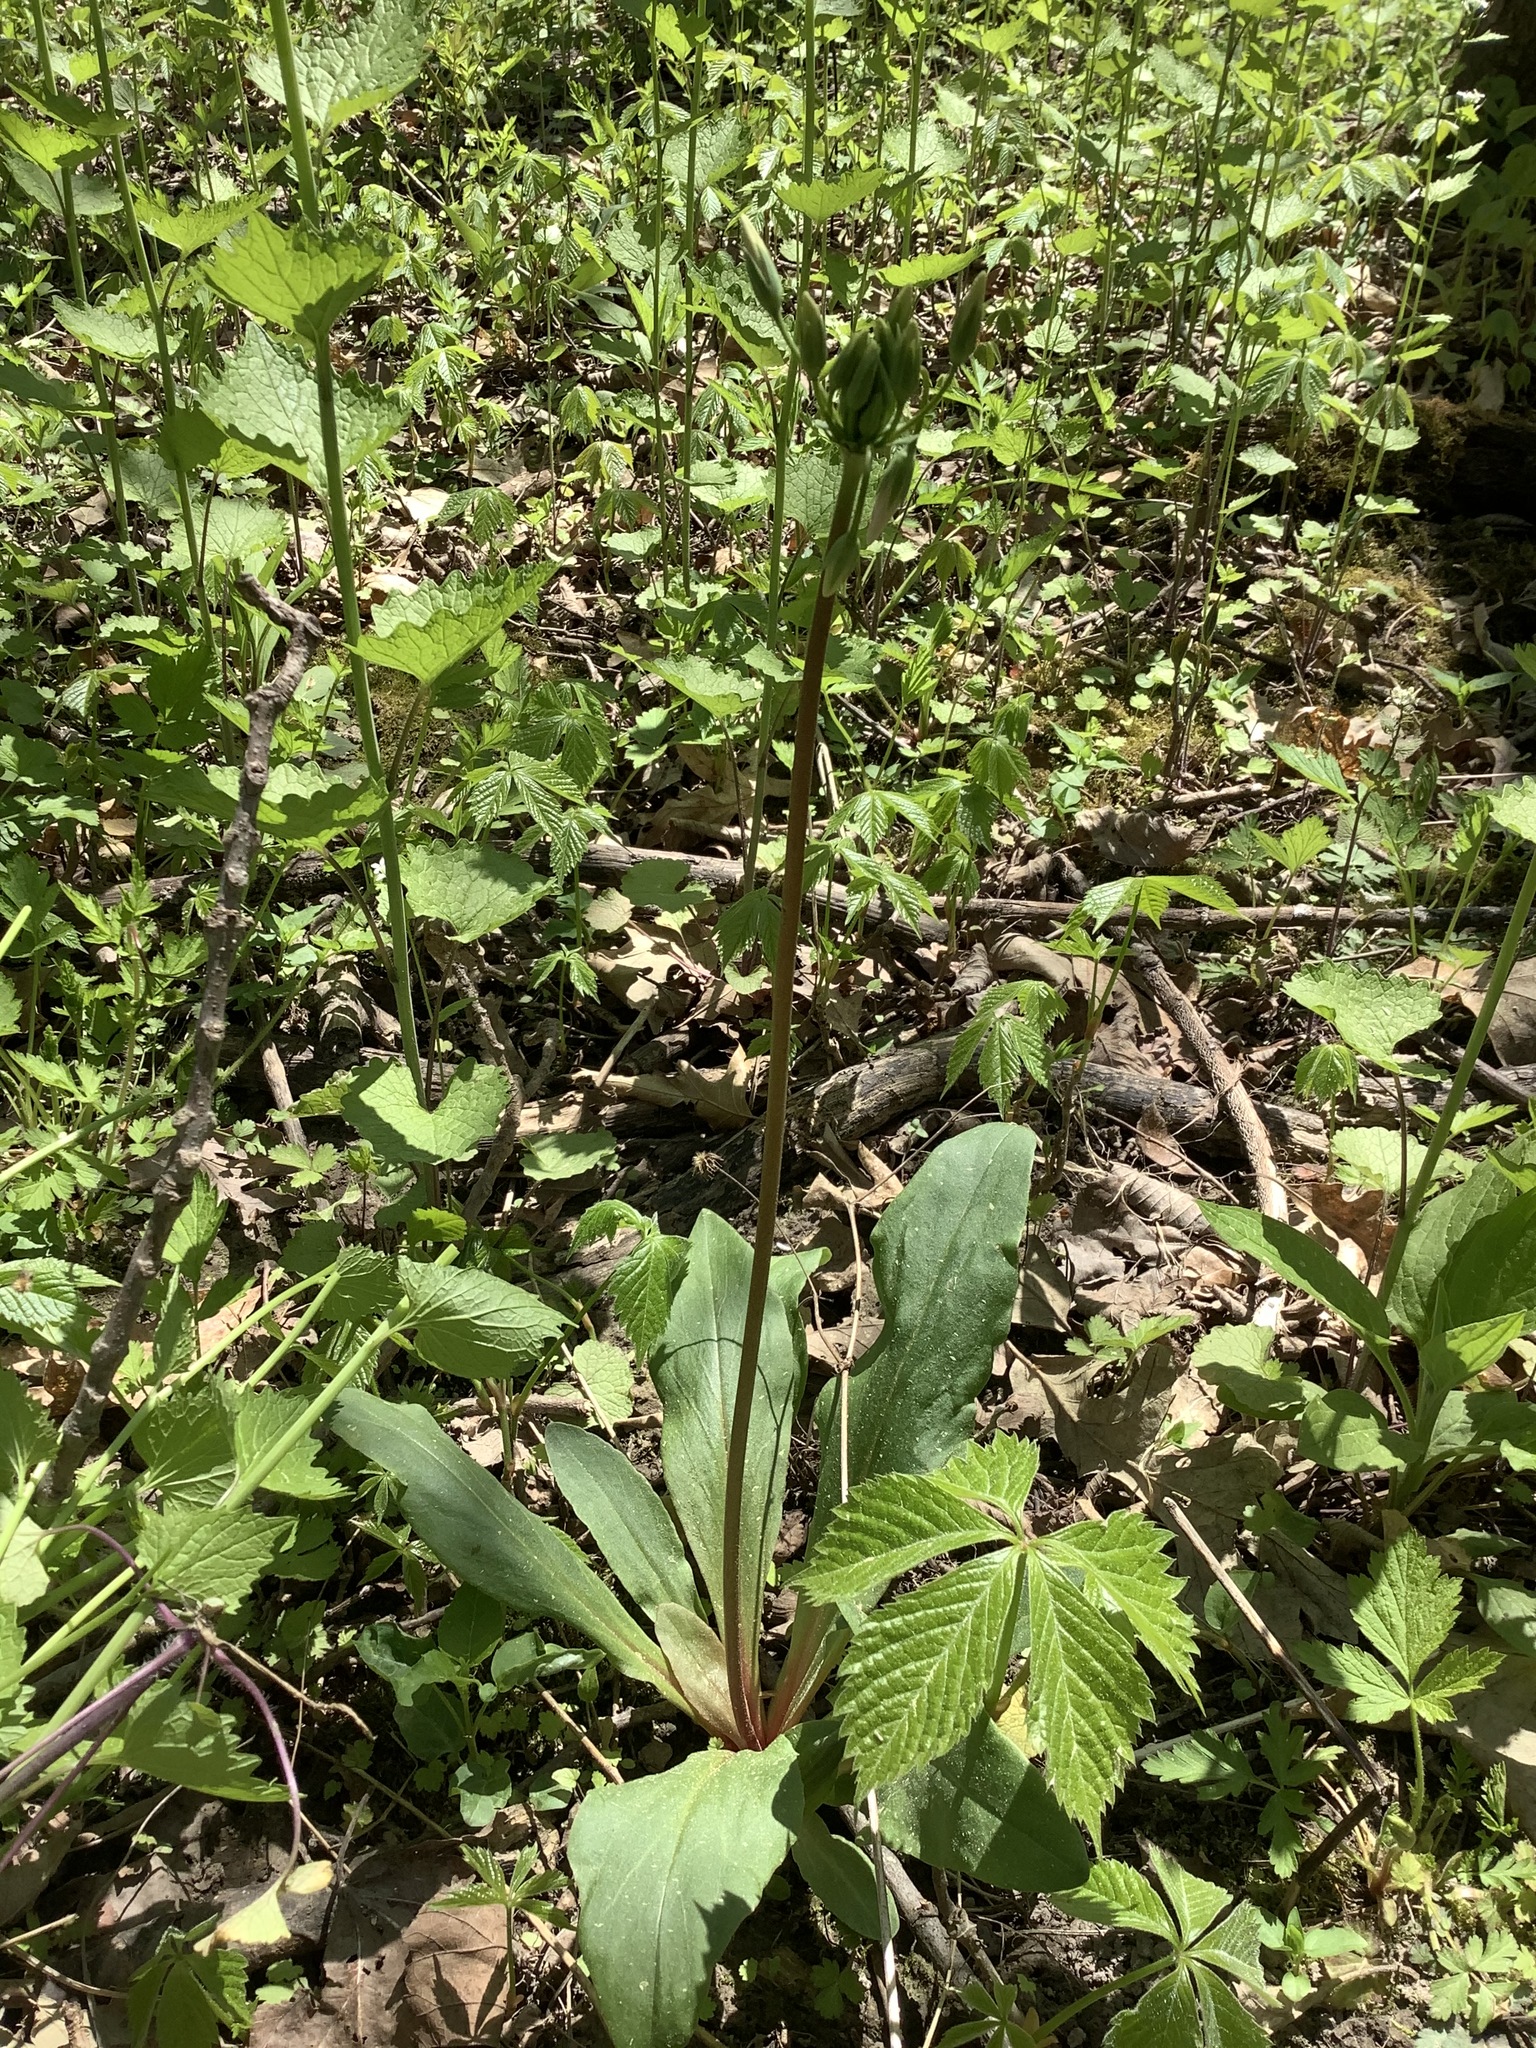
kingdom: Plantae
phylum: Tracheophyta
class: Magnoliopsida
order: Ericales
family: Primulaceae
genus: Dodecatheon
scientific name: Dodecatheon meadia
